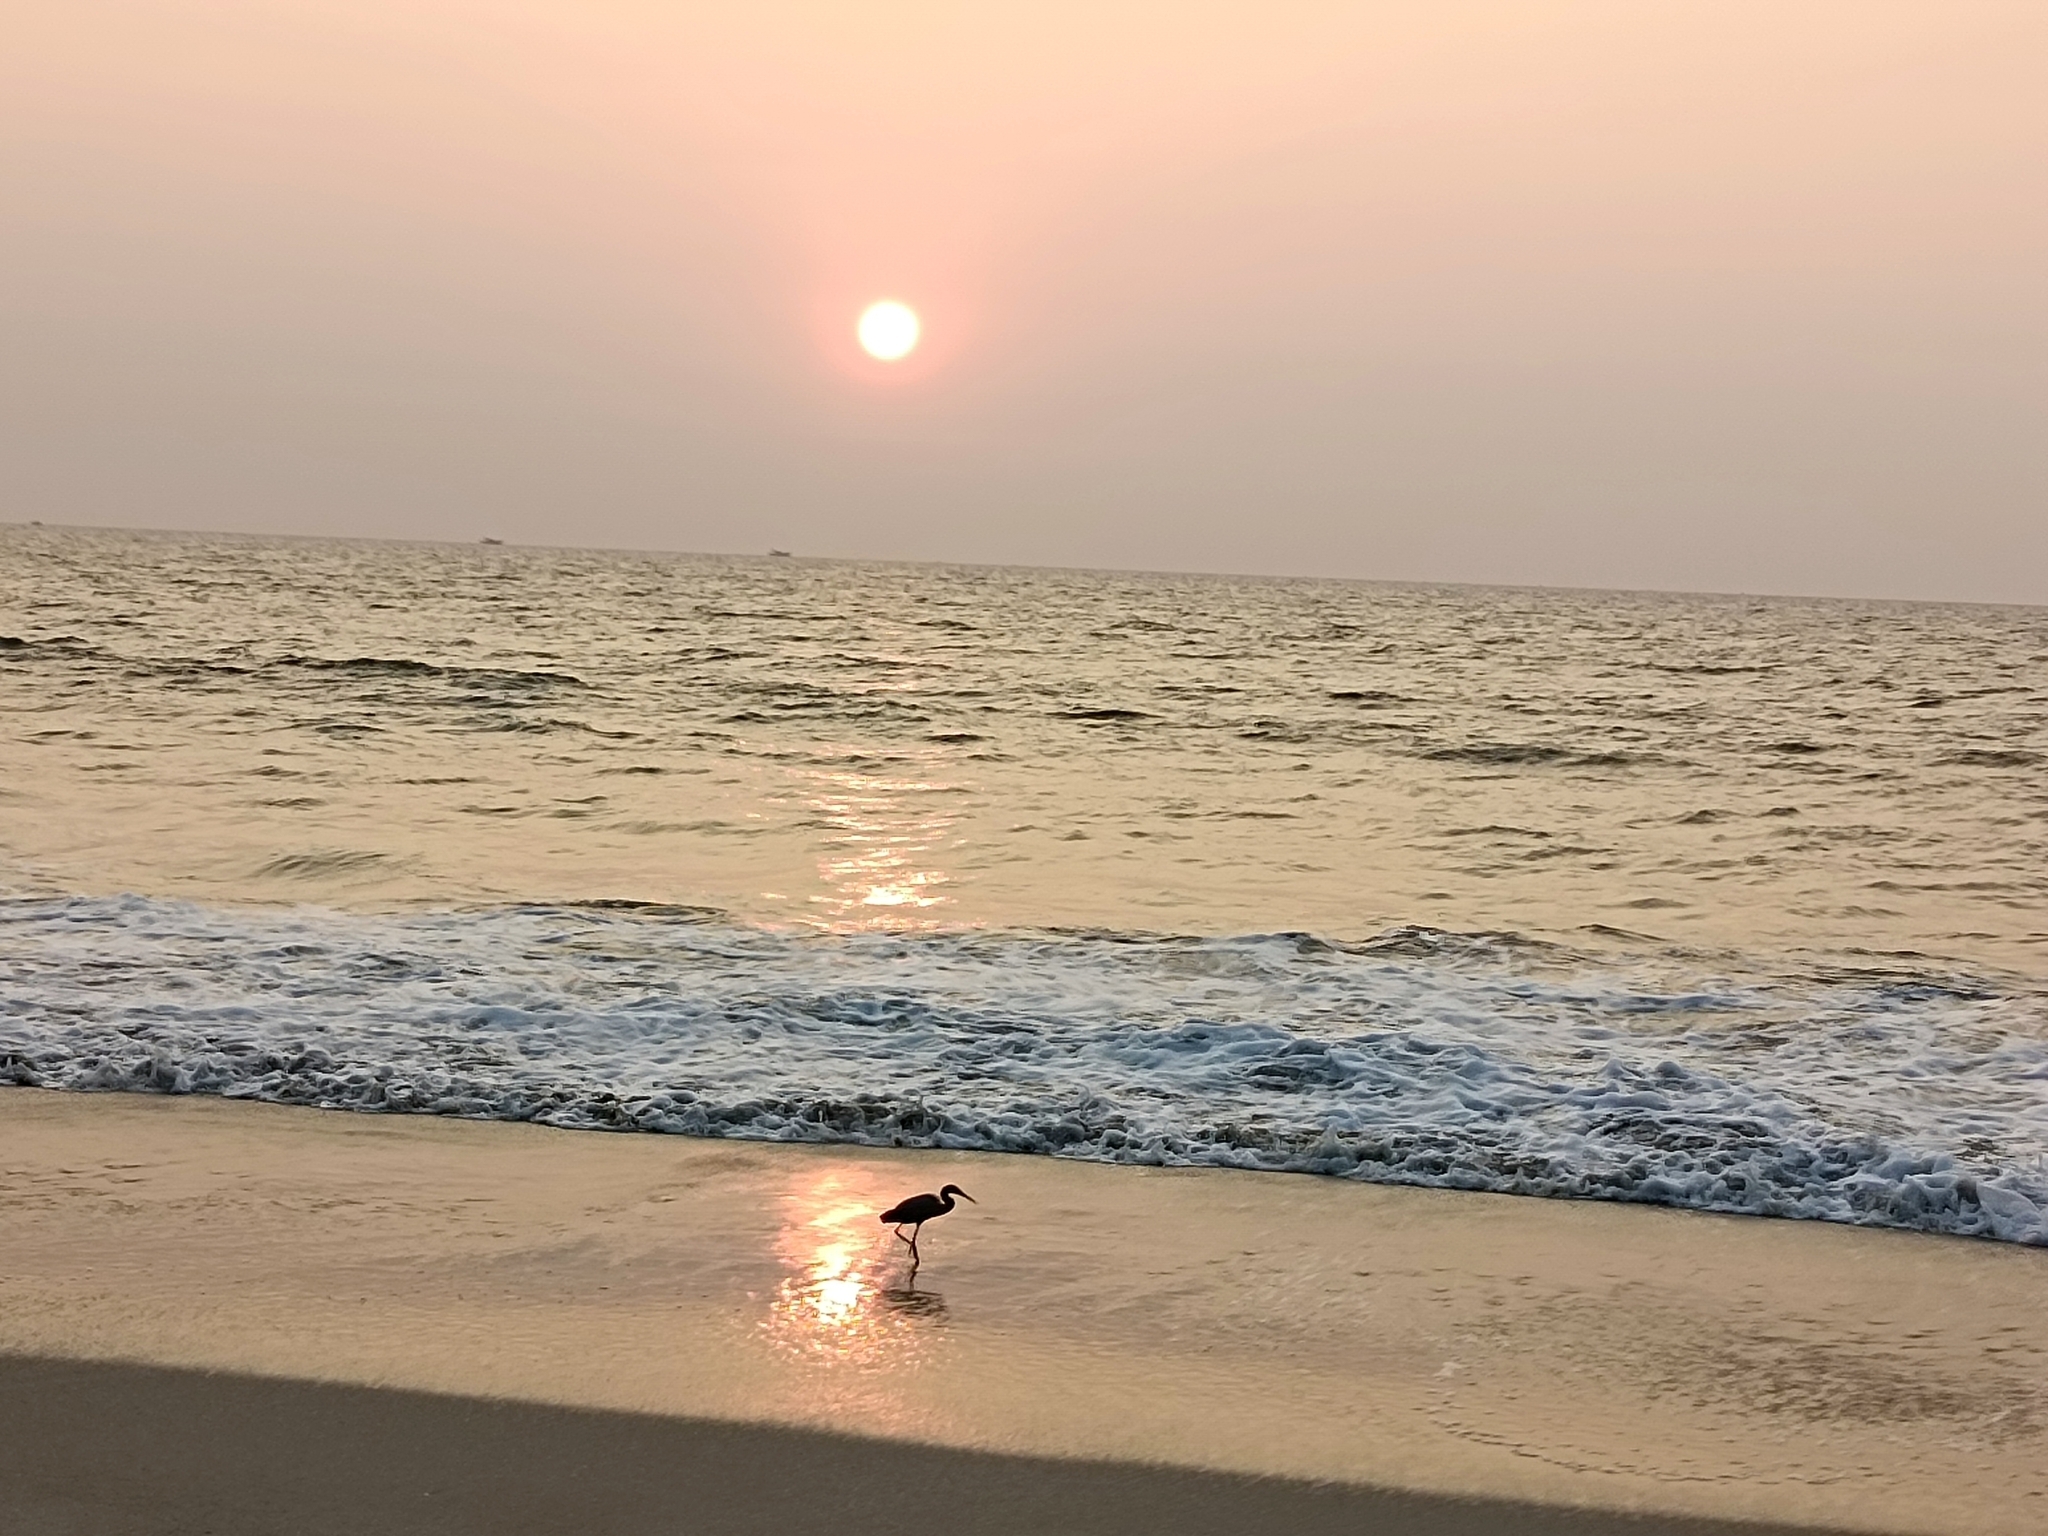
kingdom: Animalia
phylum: Chordata
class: Aves
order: Pelecaniformes
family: Ardeidae
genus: Egretta
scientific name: Egretta gularis
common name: Western reef-heron
